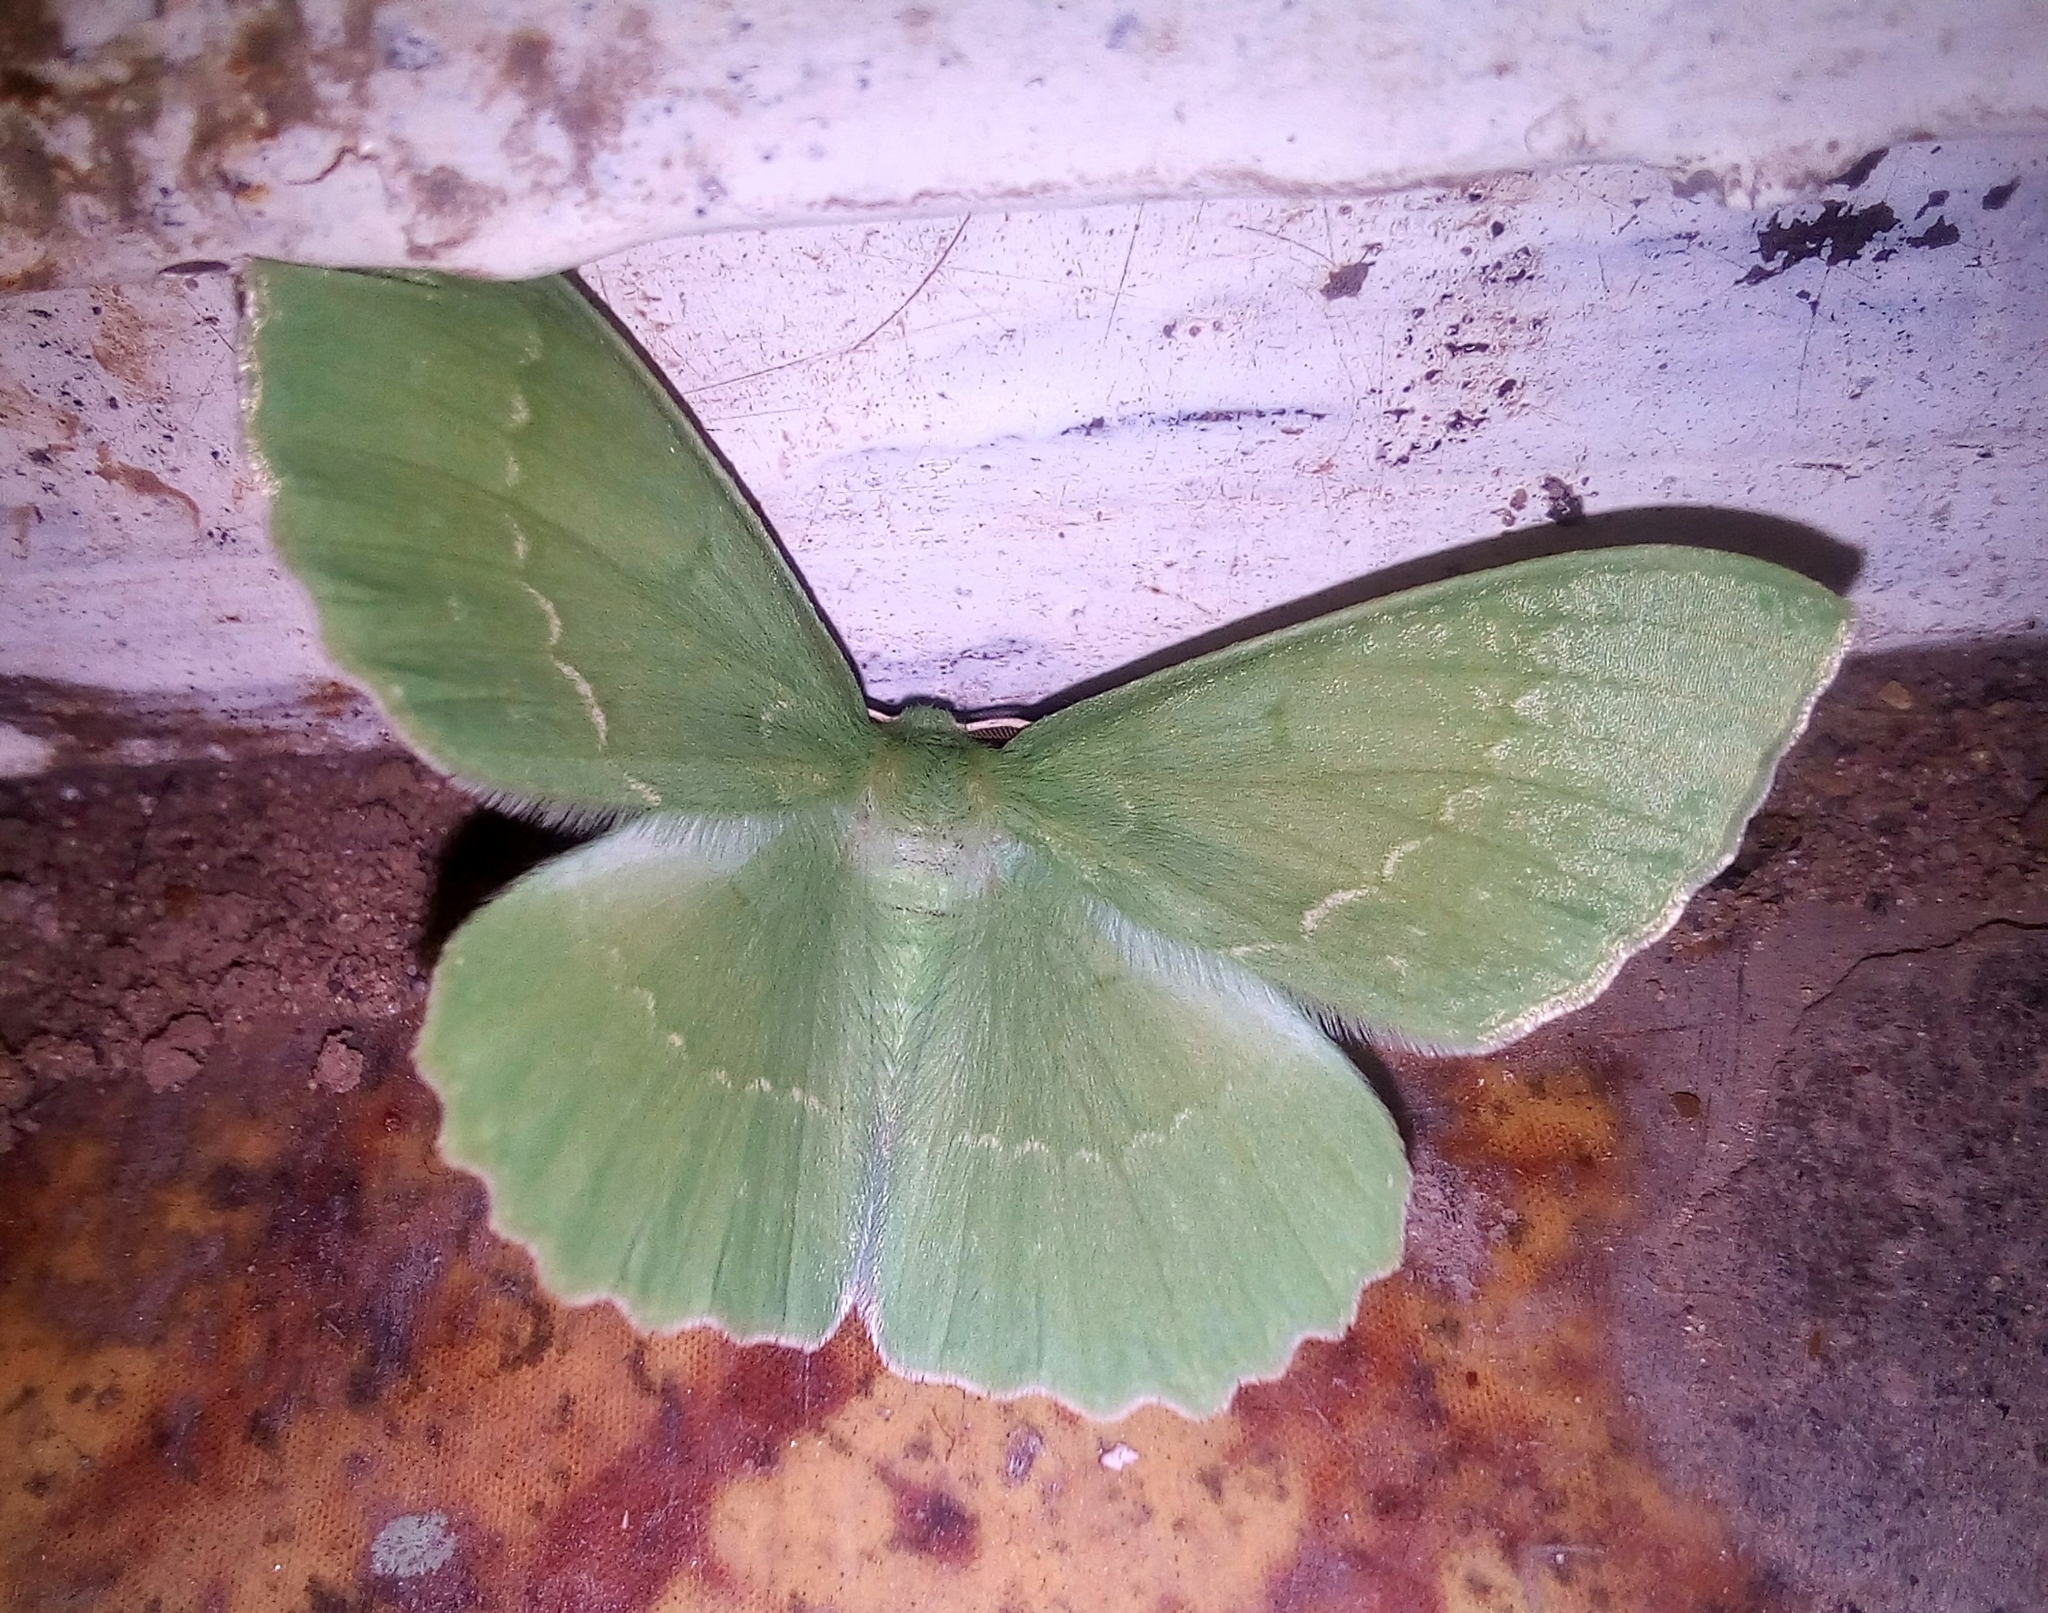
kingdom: Animalia
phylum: Arthropoda
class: Insecta
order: Lepidoptera
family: Geometridae
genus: Geometra
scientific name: Geometra papilionaria
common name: Large emerald
